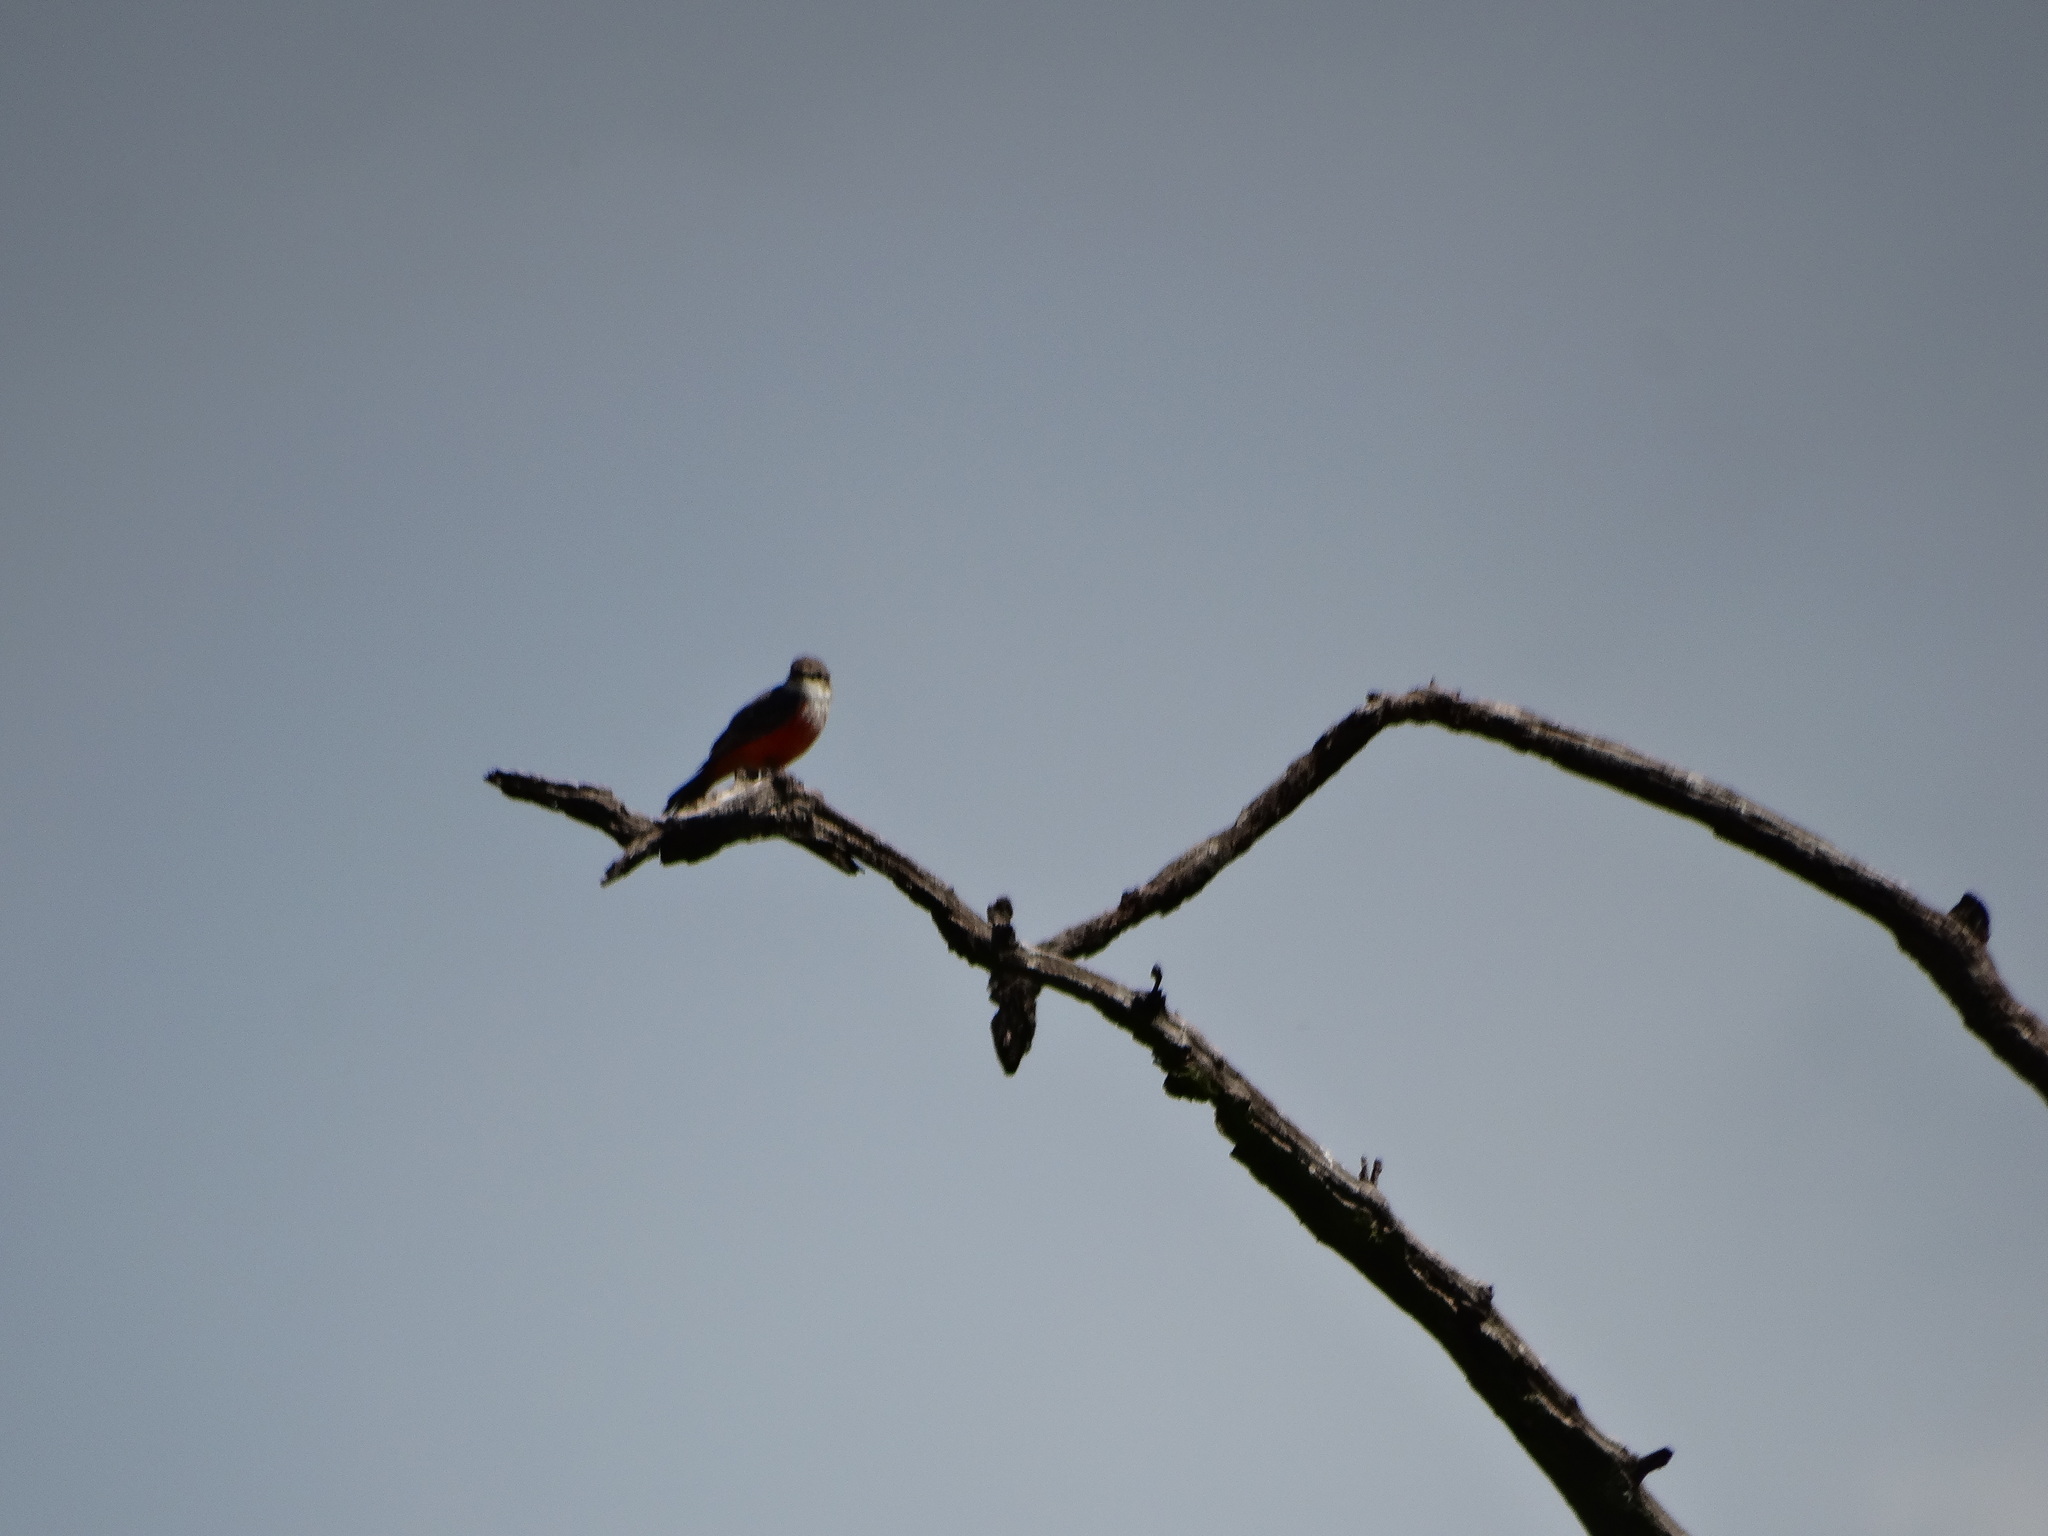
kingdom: Animalia
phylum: Chordata
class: Aves
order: Passeriformes
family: Tyrannidae
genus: Pyrocephalus
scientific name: Pyrocephalus rubinus
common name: Vermilion flycatcher
